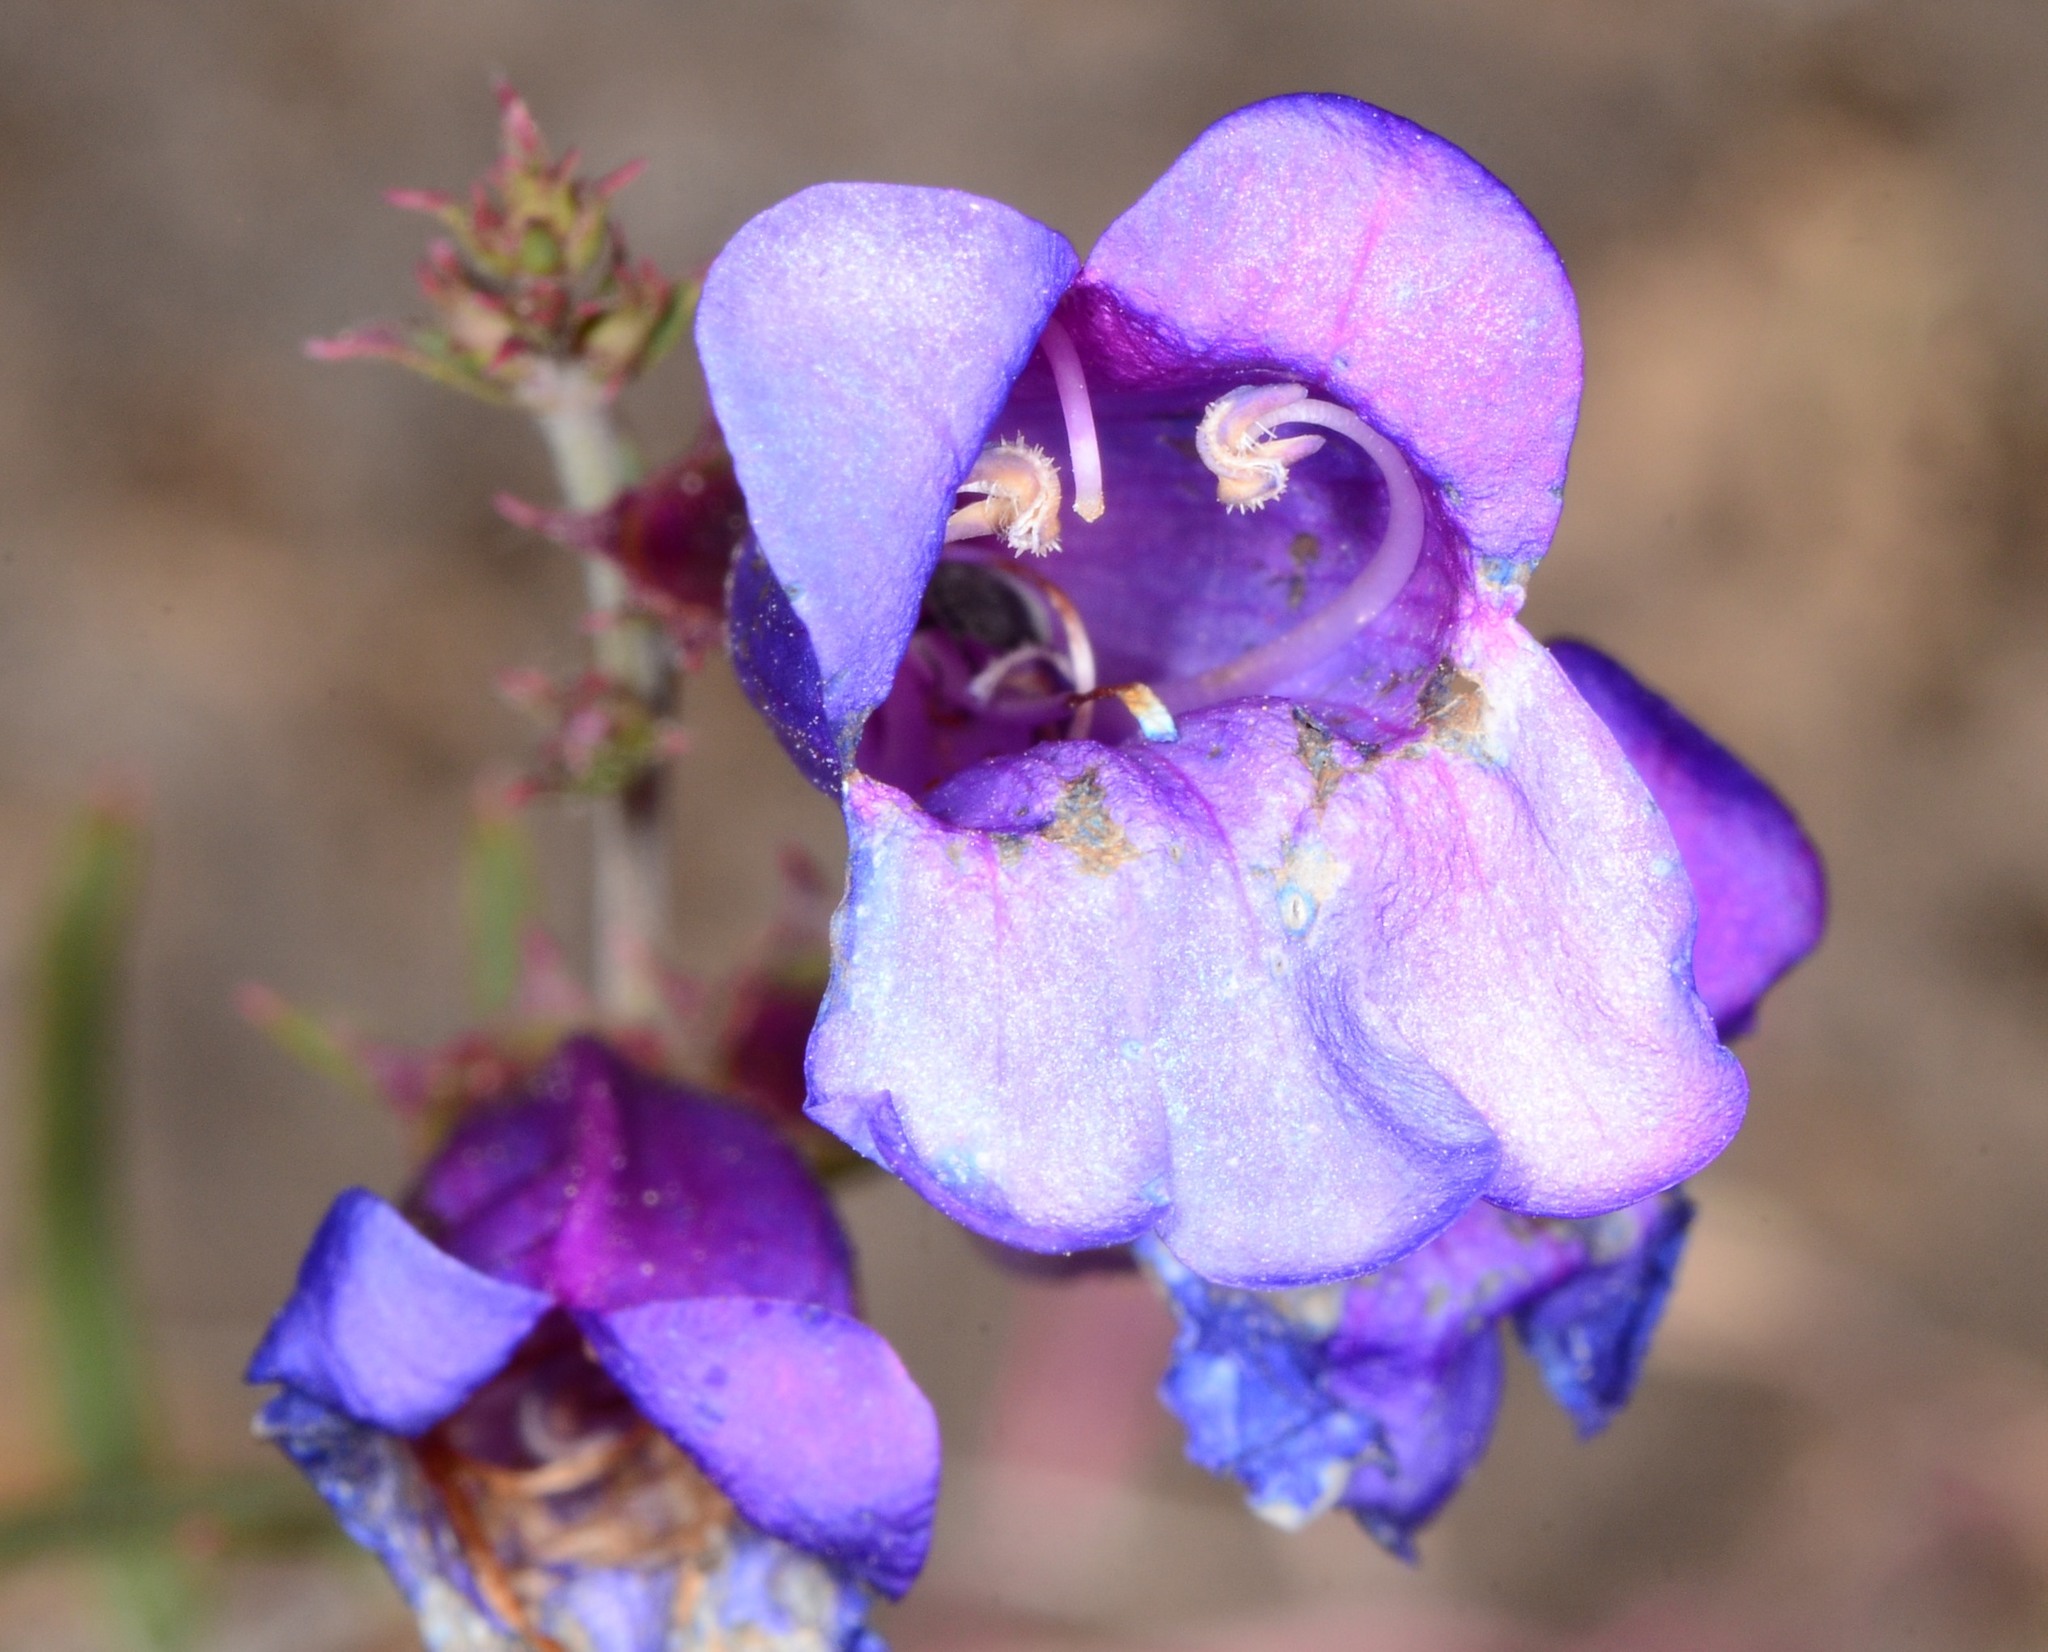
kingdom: Plantae
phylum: Tracheophyta
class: Magnoliopsida
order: Lamiales
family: Plantaginaceae
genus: Penstemon
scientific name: Penstemon heterophyllus
